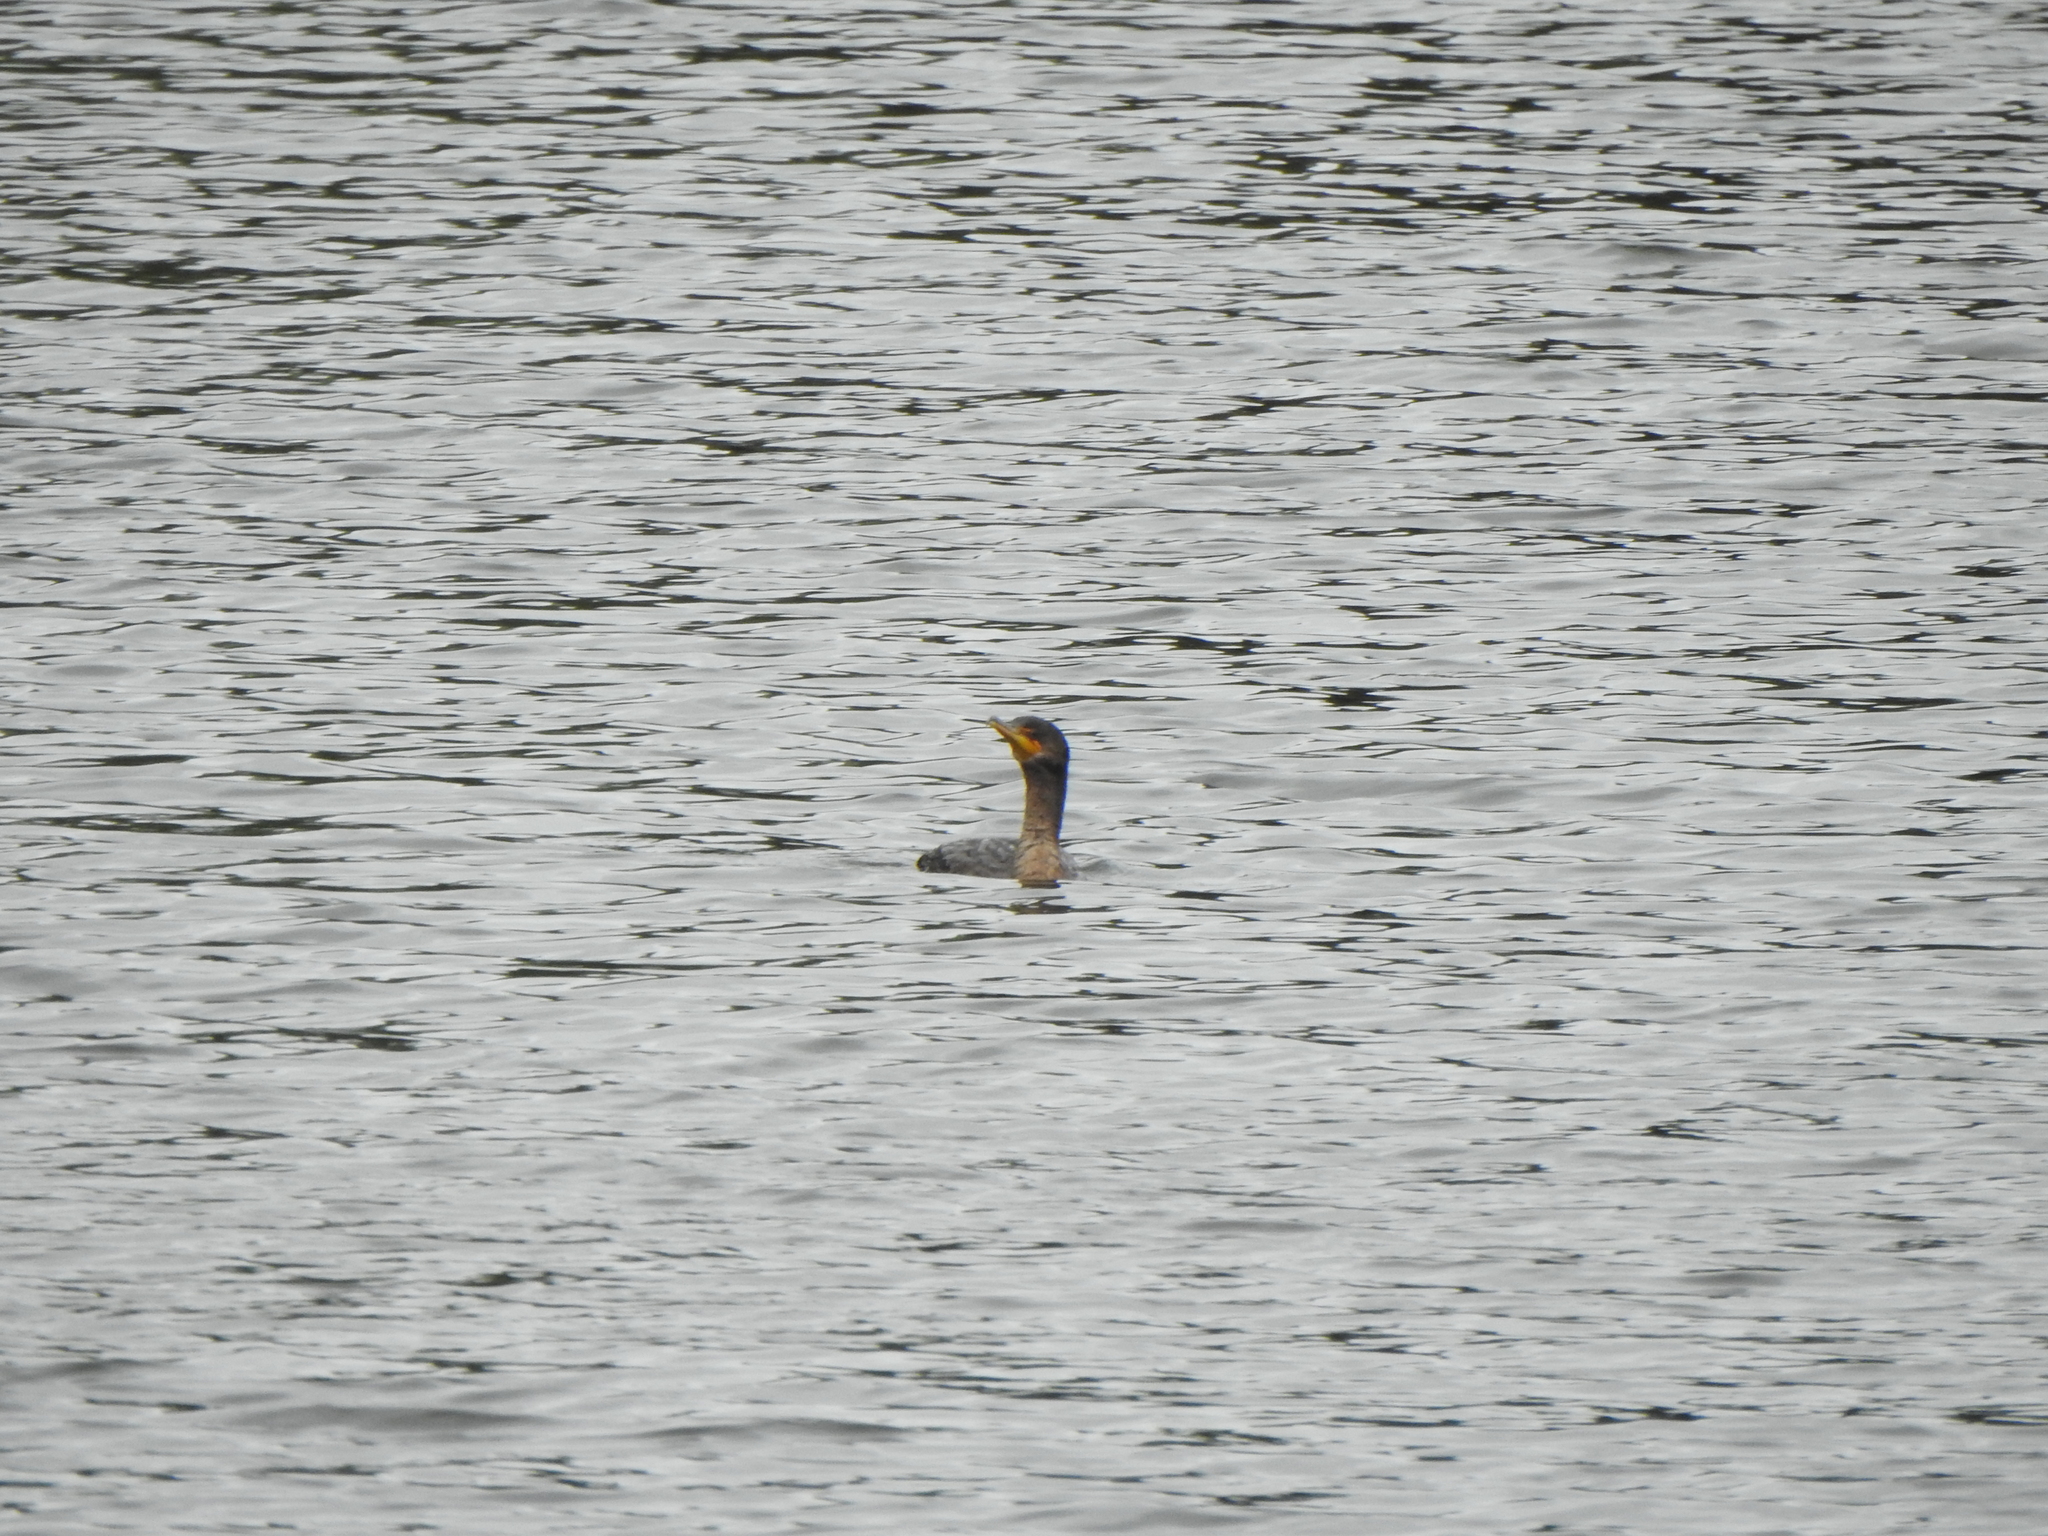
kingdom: Animalia
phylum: Chordata
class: Aves
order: Suliformes
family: Phalacrocoracidae
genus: Phalacrocorax
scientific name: Phalacrocorax auritus
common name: Double-crested cormorant
